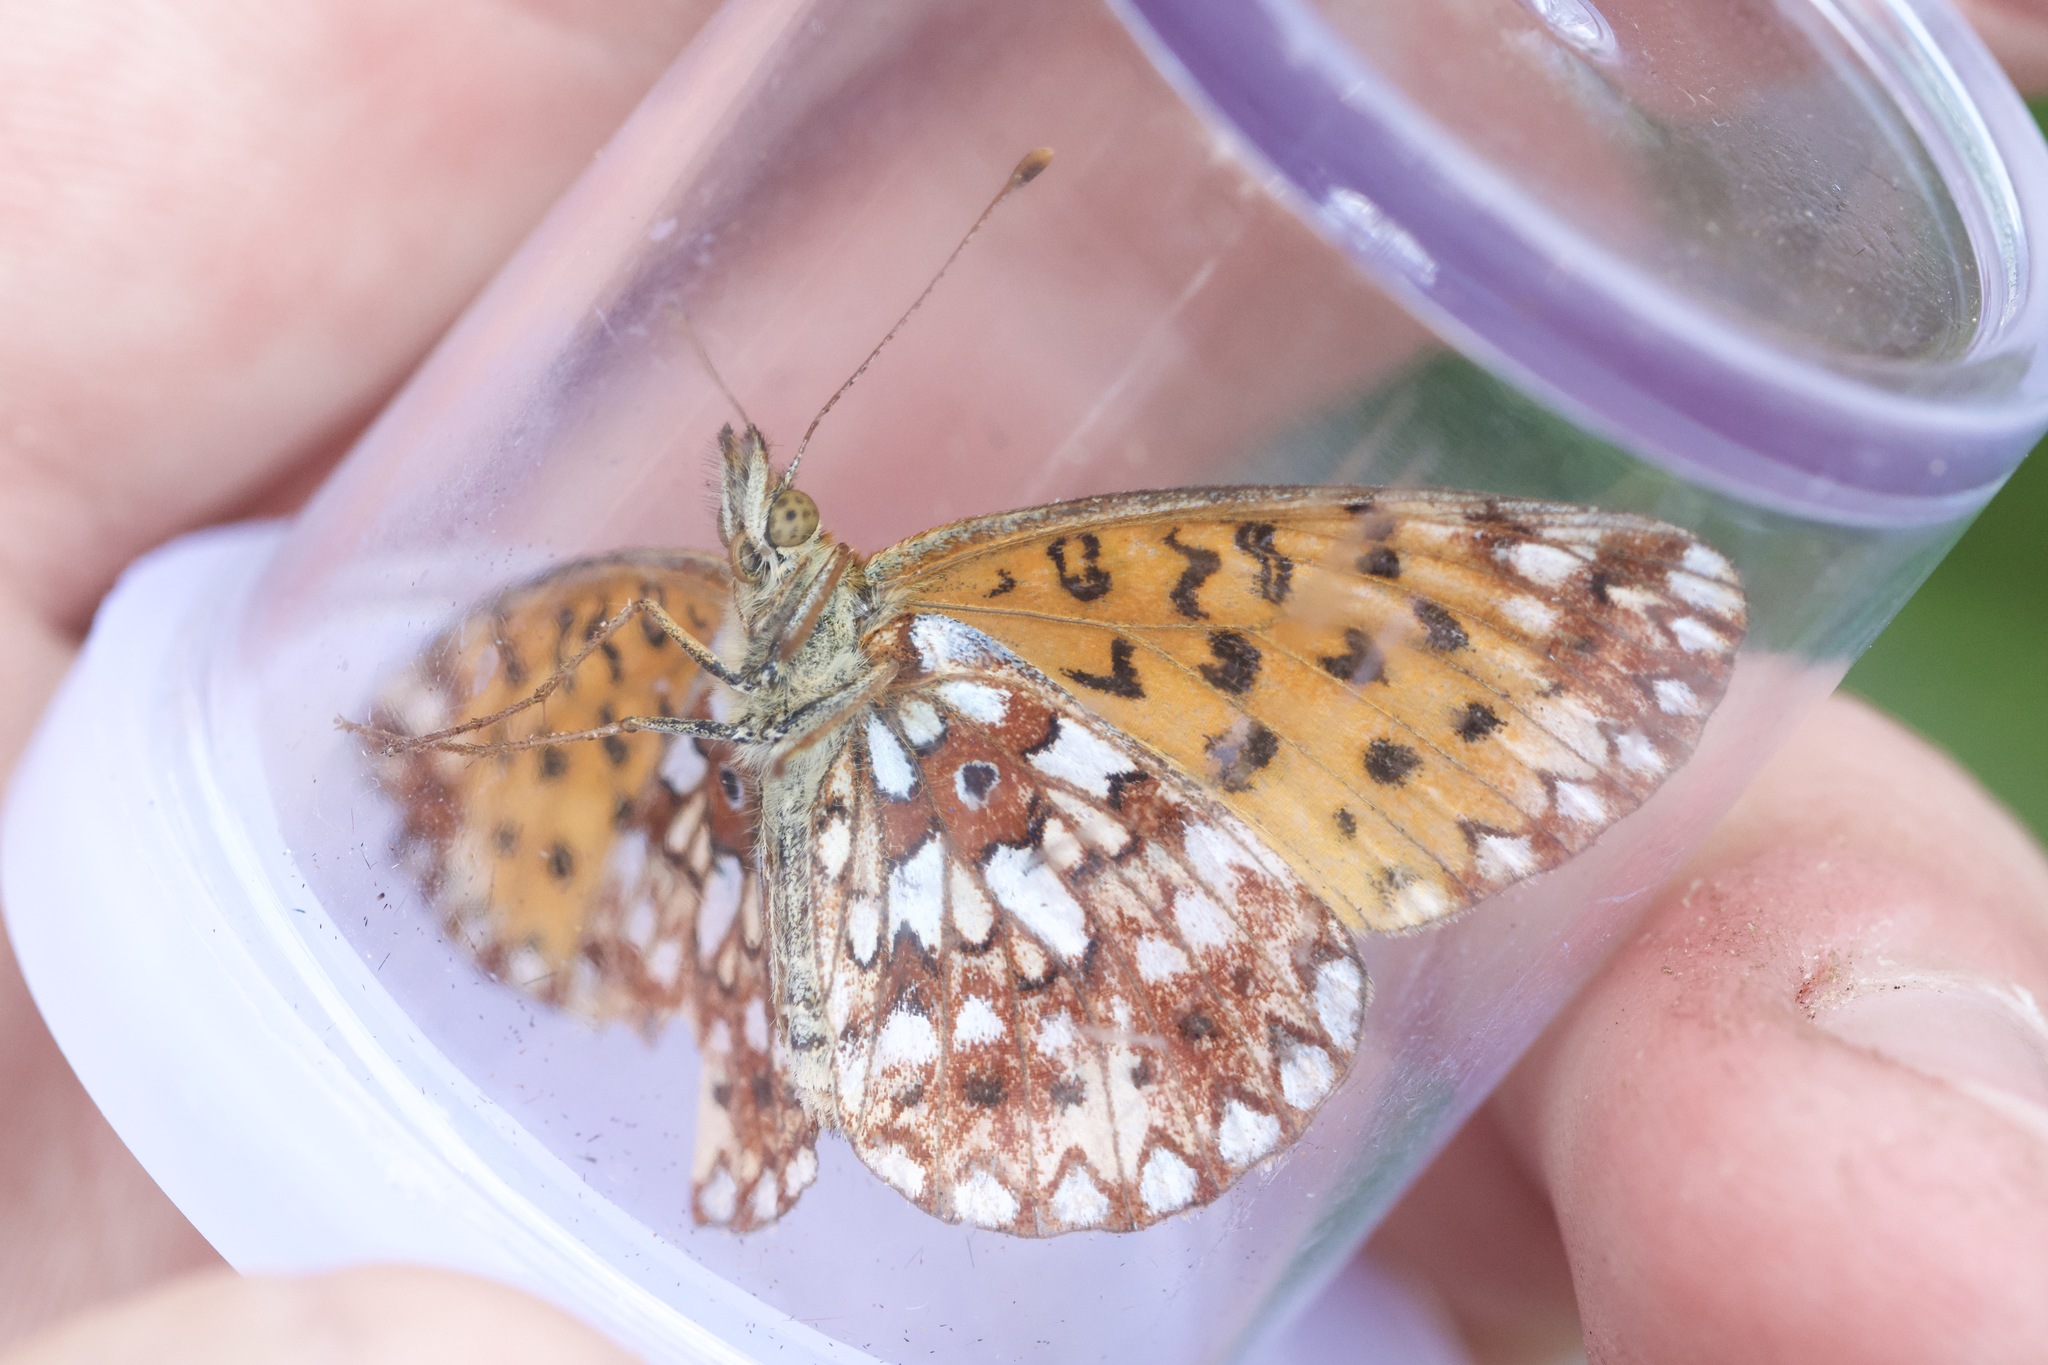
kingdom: Animalia
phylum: Arthropoda
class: Insecta
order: Lepidoptera
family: Nymphalidae
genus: Boloria
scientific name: Boloria
